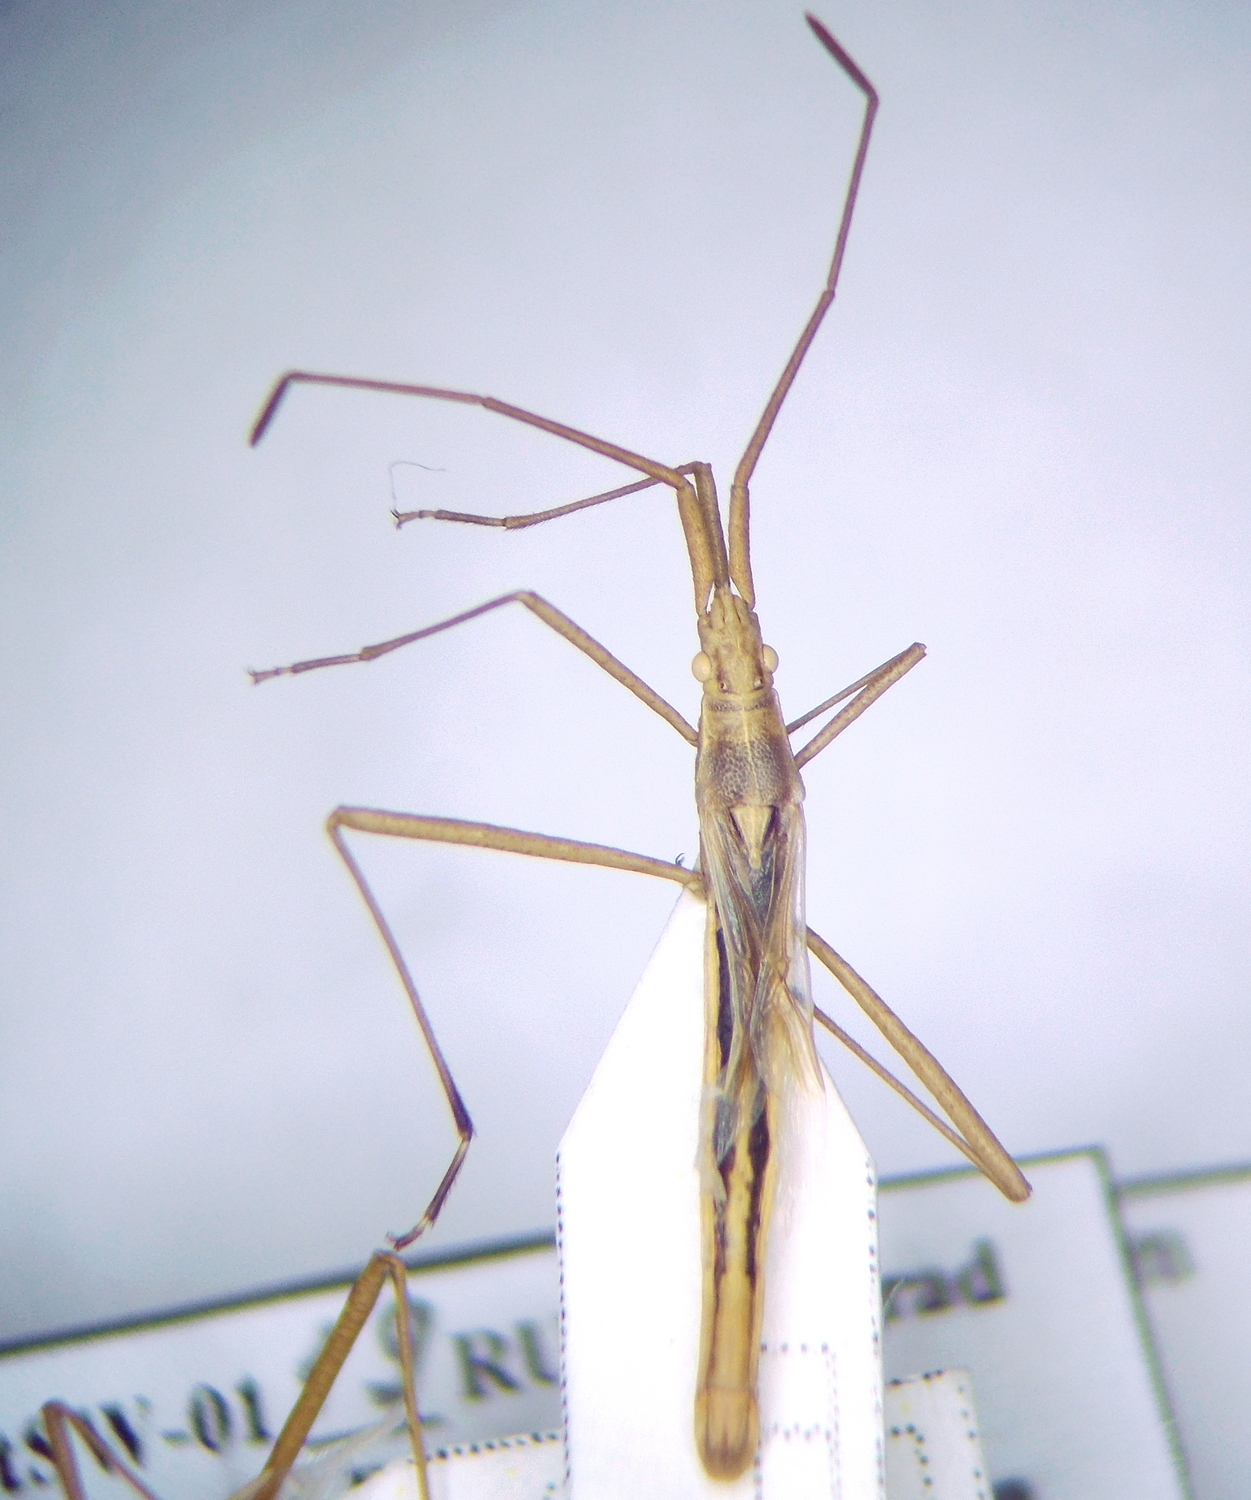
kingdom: Animalia
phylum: Arthropoda
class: Insecta
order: Hemiptera
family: Rhopalidae
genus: Chorosoma
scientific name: Chorosoma gracile
